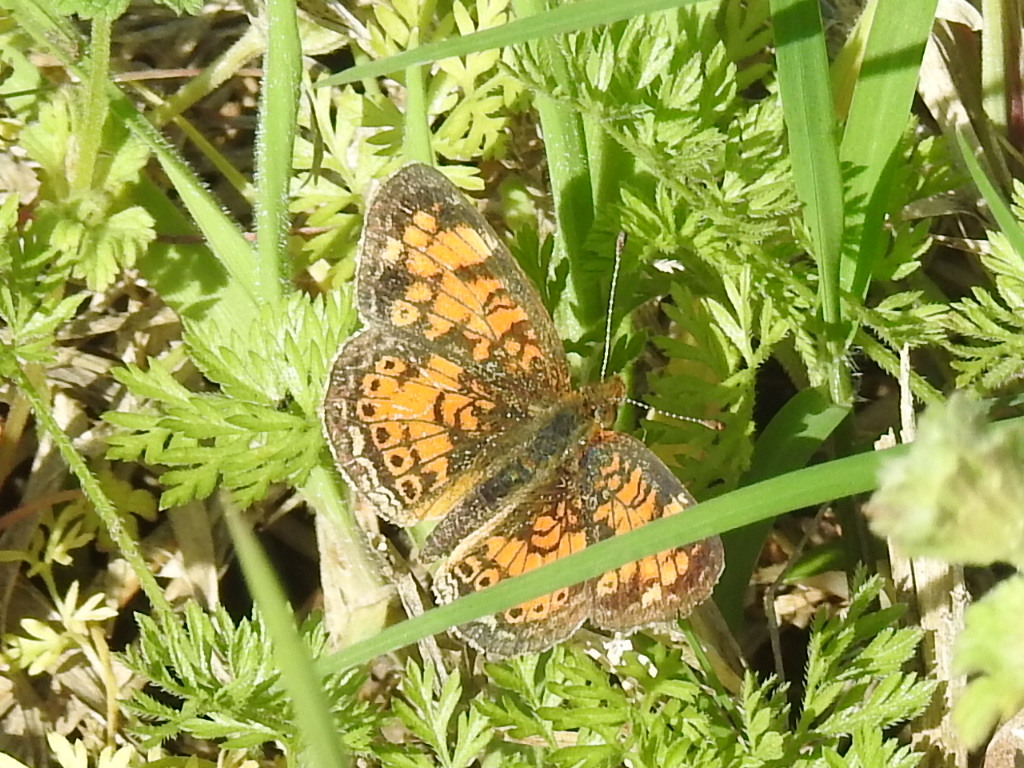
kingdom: Animalia
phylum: Arthropoda
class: Insecta
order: Lepidoptera
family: Nymphalidae
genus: Phyciodes
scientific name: Phyciodes tharos
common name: Pearl crescent
